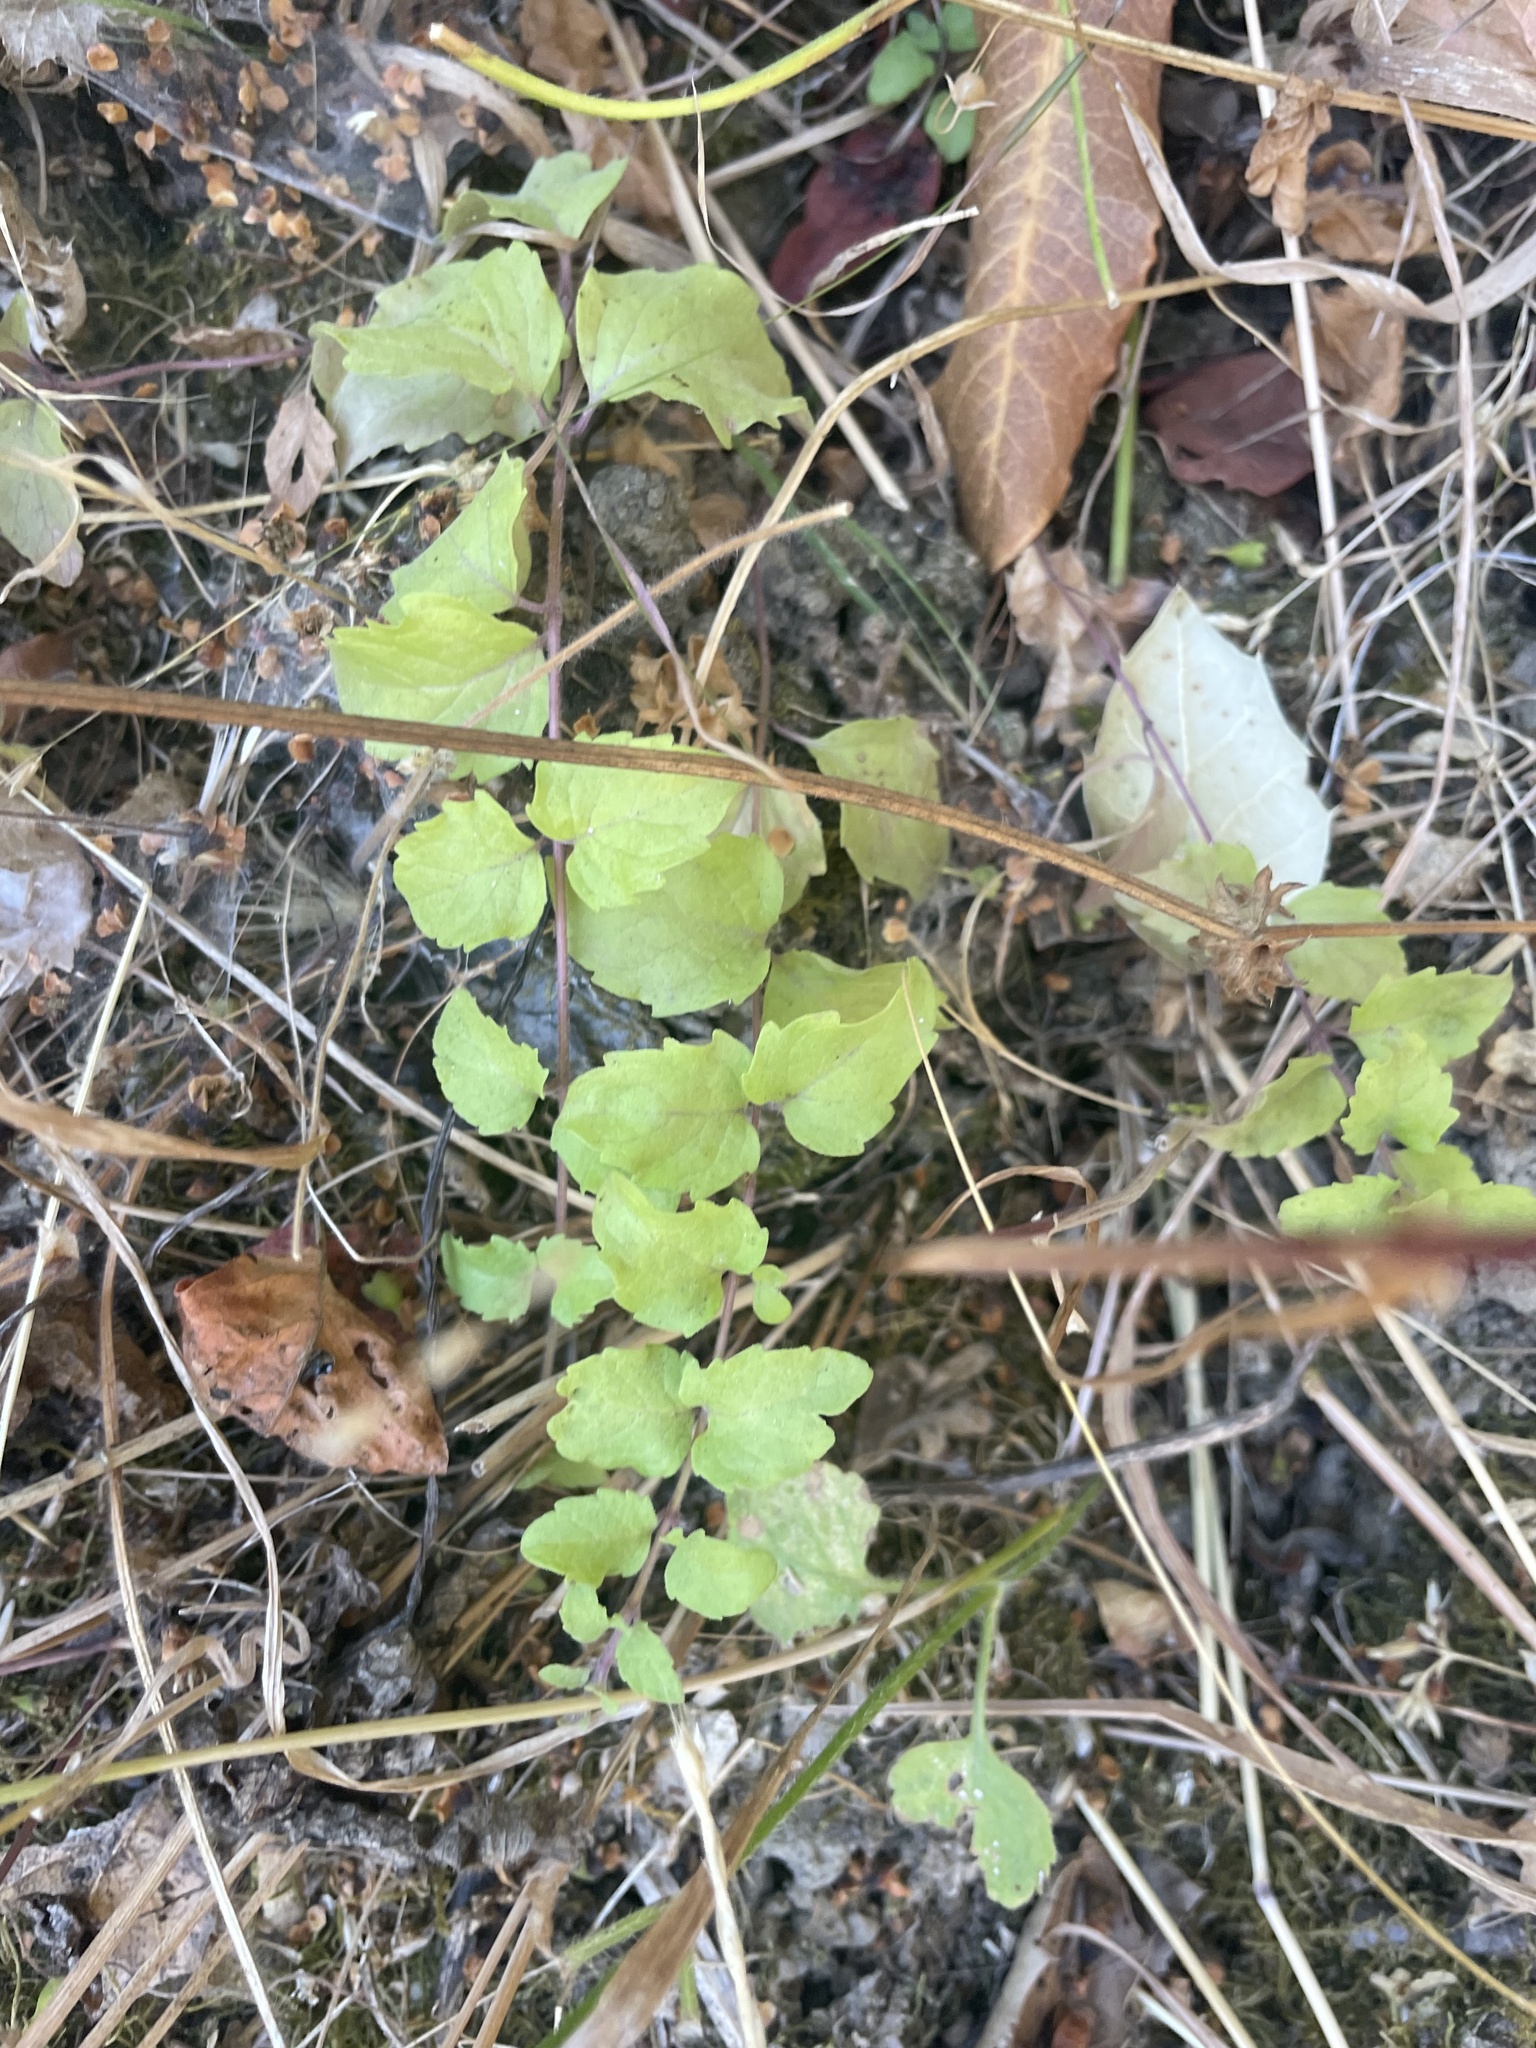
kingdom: Plantae
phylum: Tracheophyta
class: Magnoliopsida
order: Lamiales
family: Lamiaceae
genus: Micromeria
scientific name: Micromeria douglasii
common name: Yerba buena
